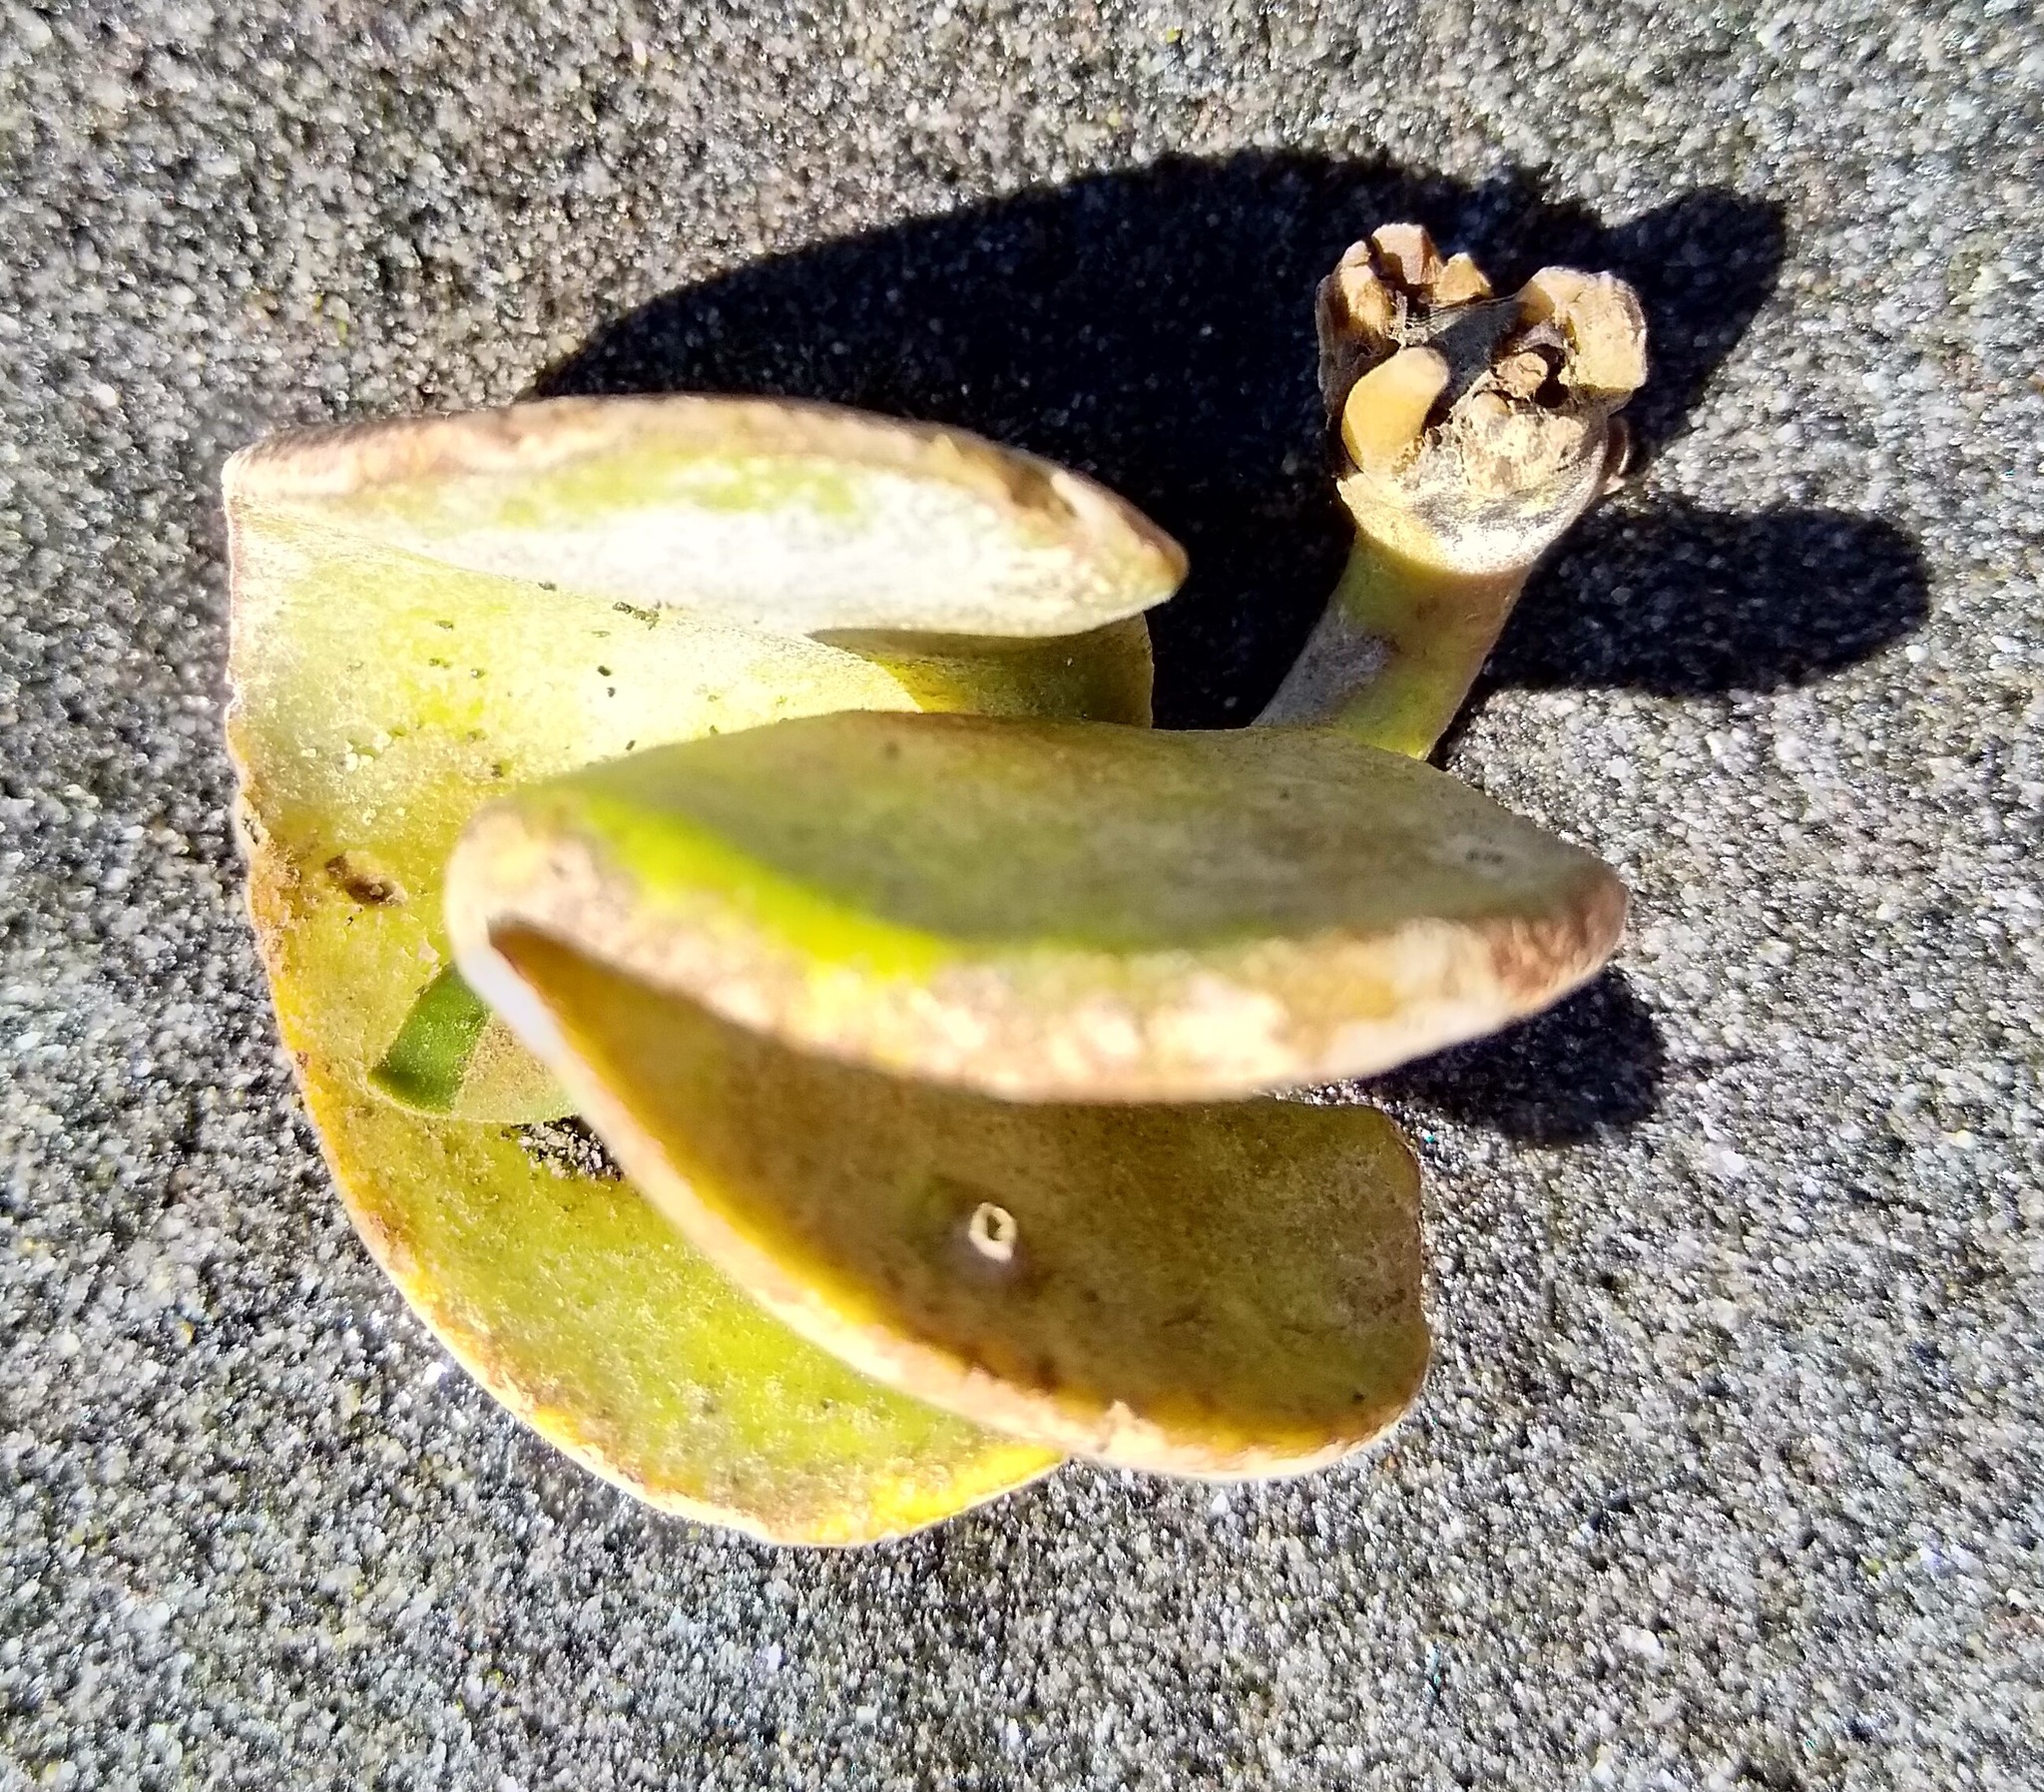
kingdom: Plantae
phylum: Tracheophyta
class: Magnoliopsida
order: Lamiales
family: Acanthaceae
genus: Avicennia
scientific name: Avicennia marina
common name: Gray mangrove
